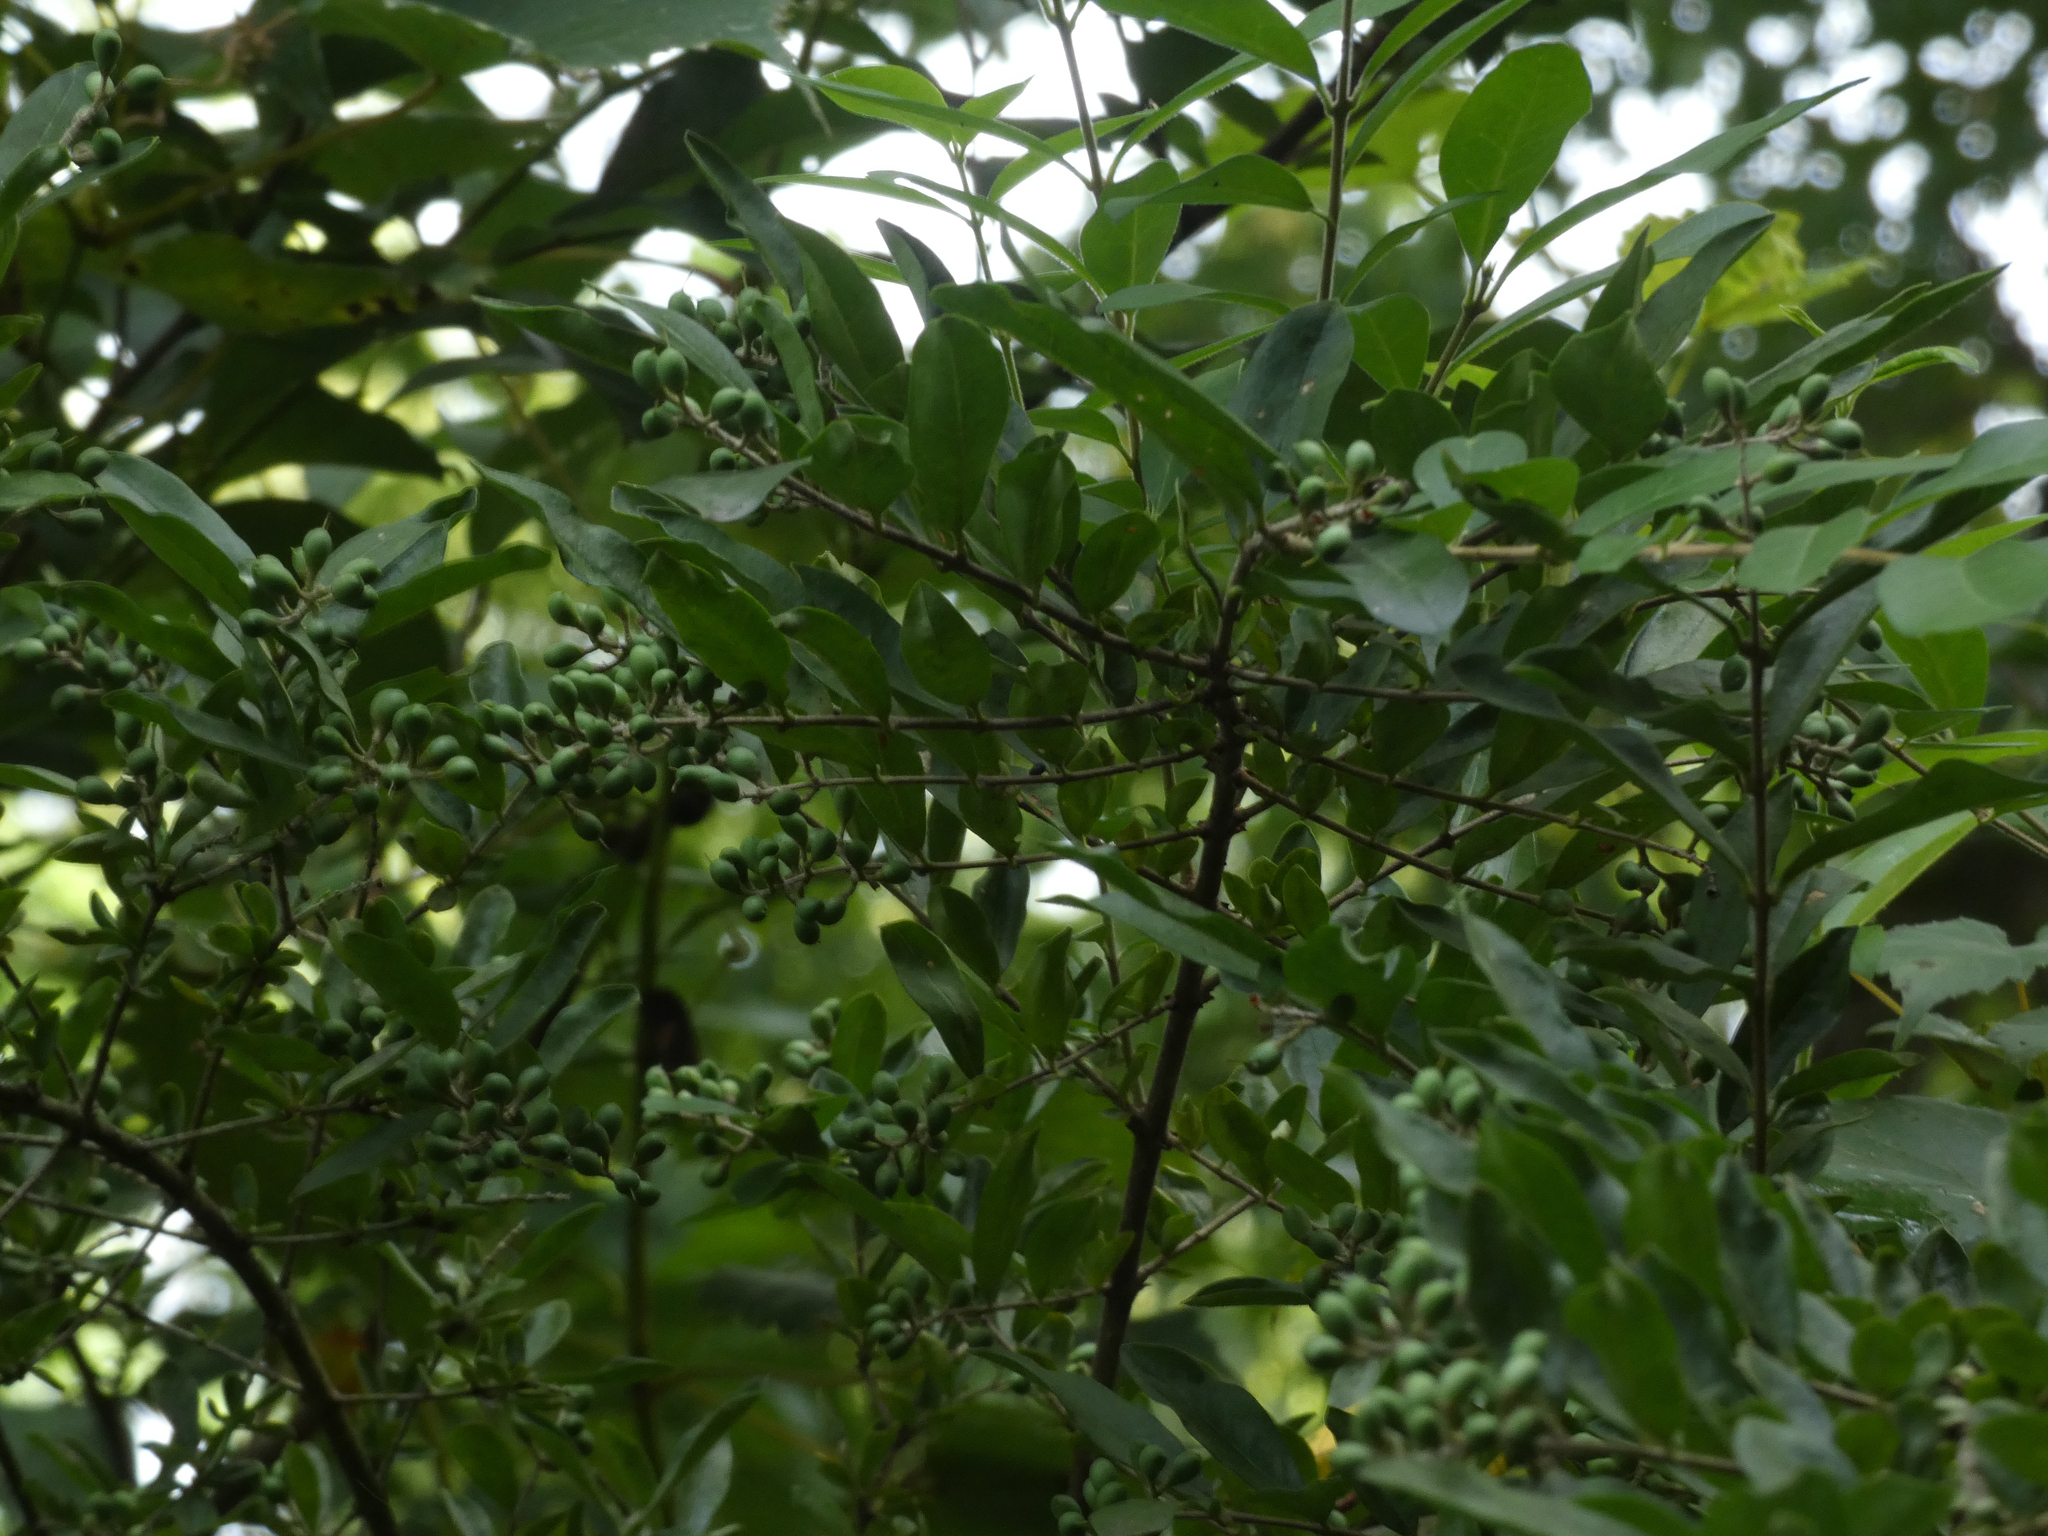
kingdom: Plantae
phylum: Tracheophyta
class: Magnoliopsida
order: Lamiales
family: Oleaceae
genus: Ligustrum
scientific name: Ligustrum obtusifolium
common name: Border privet
